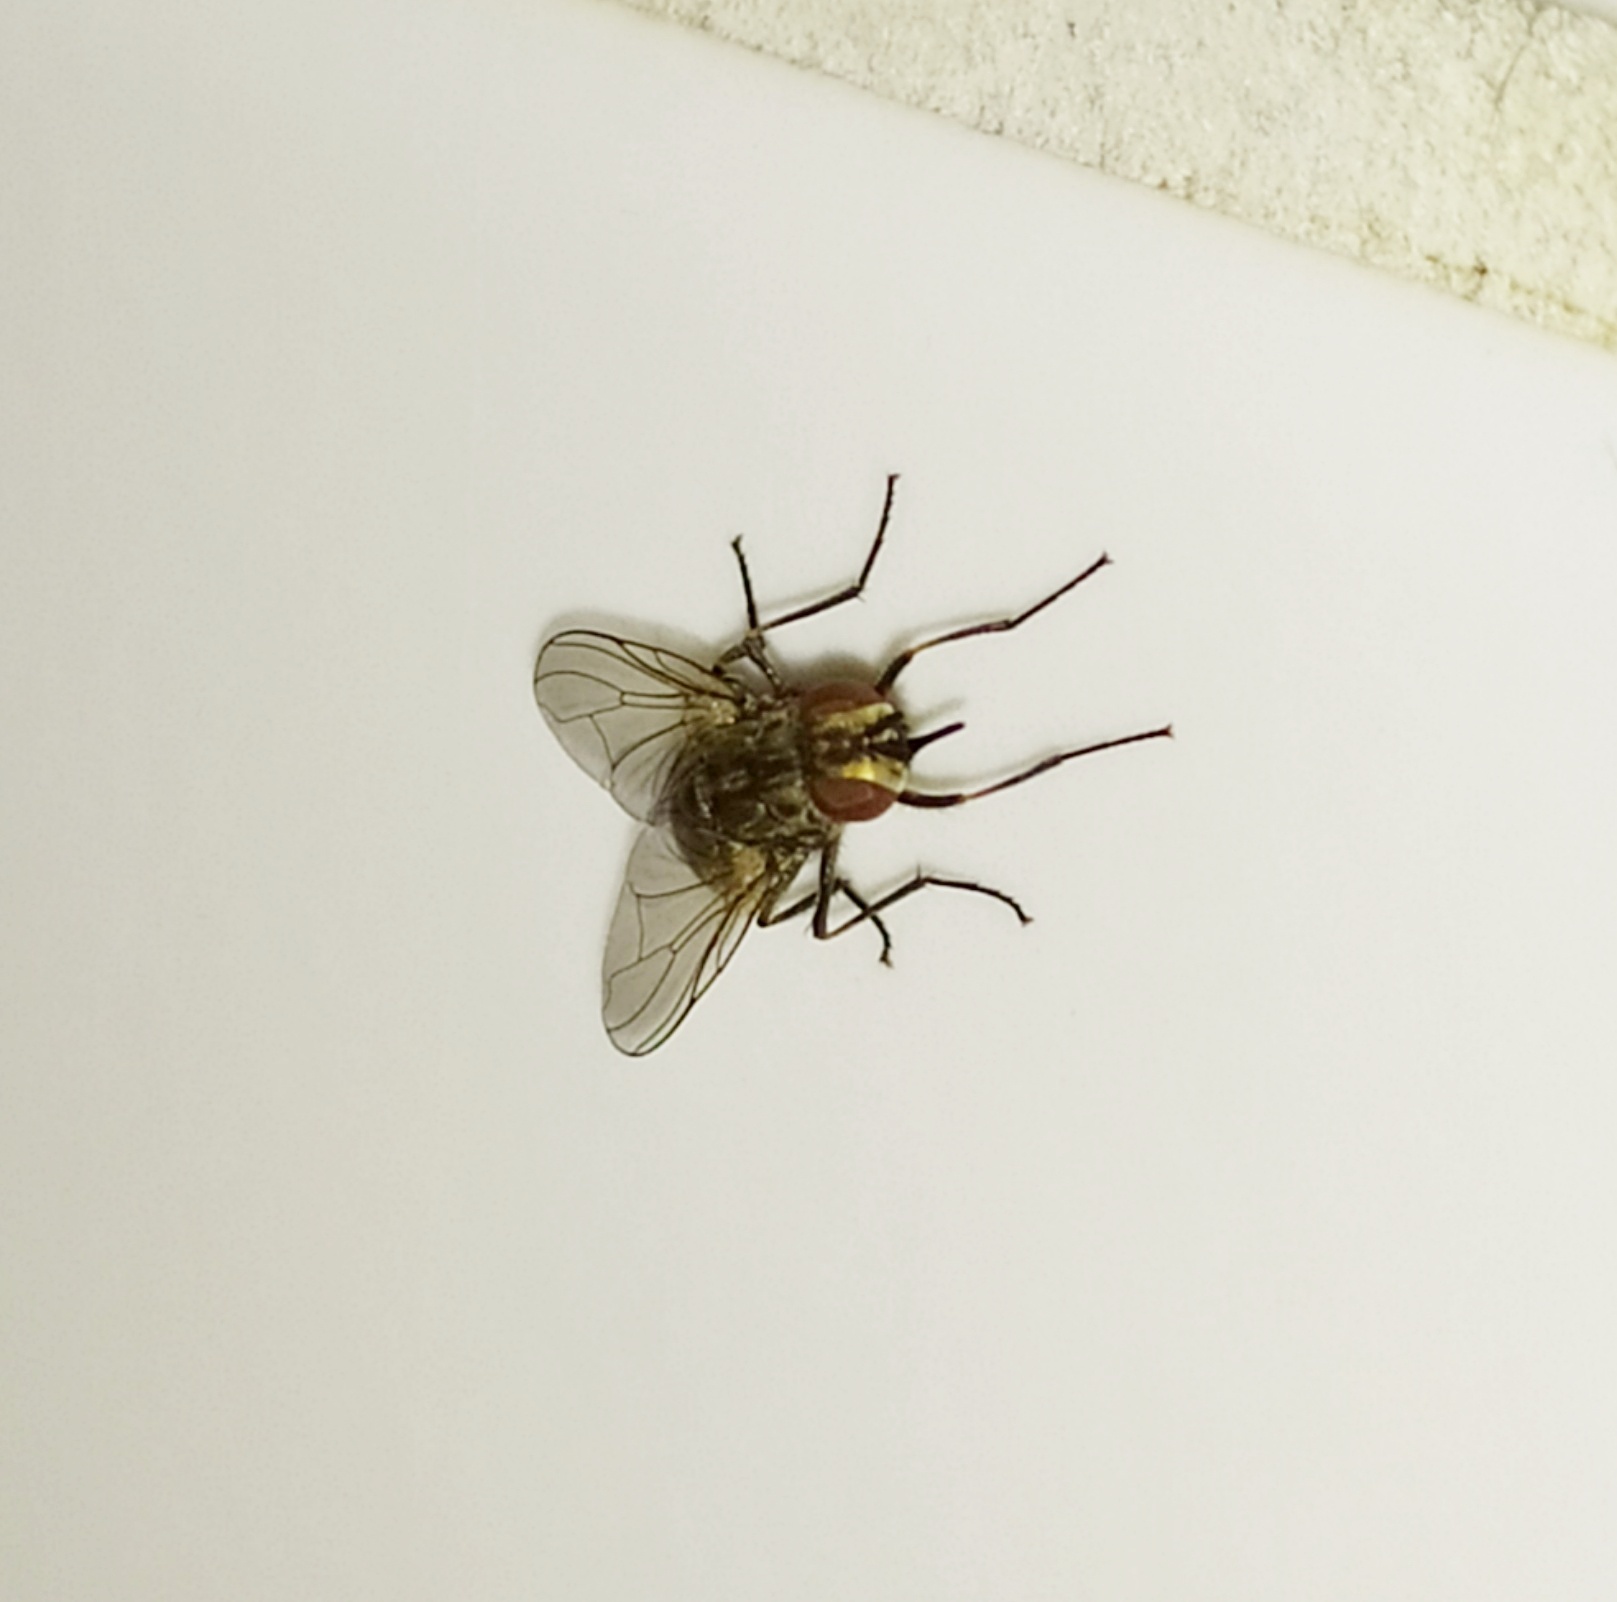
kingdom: Animalia
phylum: Arthropoda
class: Insecta
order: Diptera
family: Muscidae
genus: Stomoxys
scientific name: Stomoxys calcitrans
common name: Stable fly
